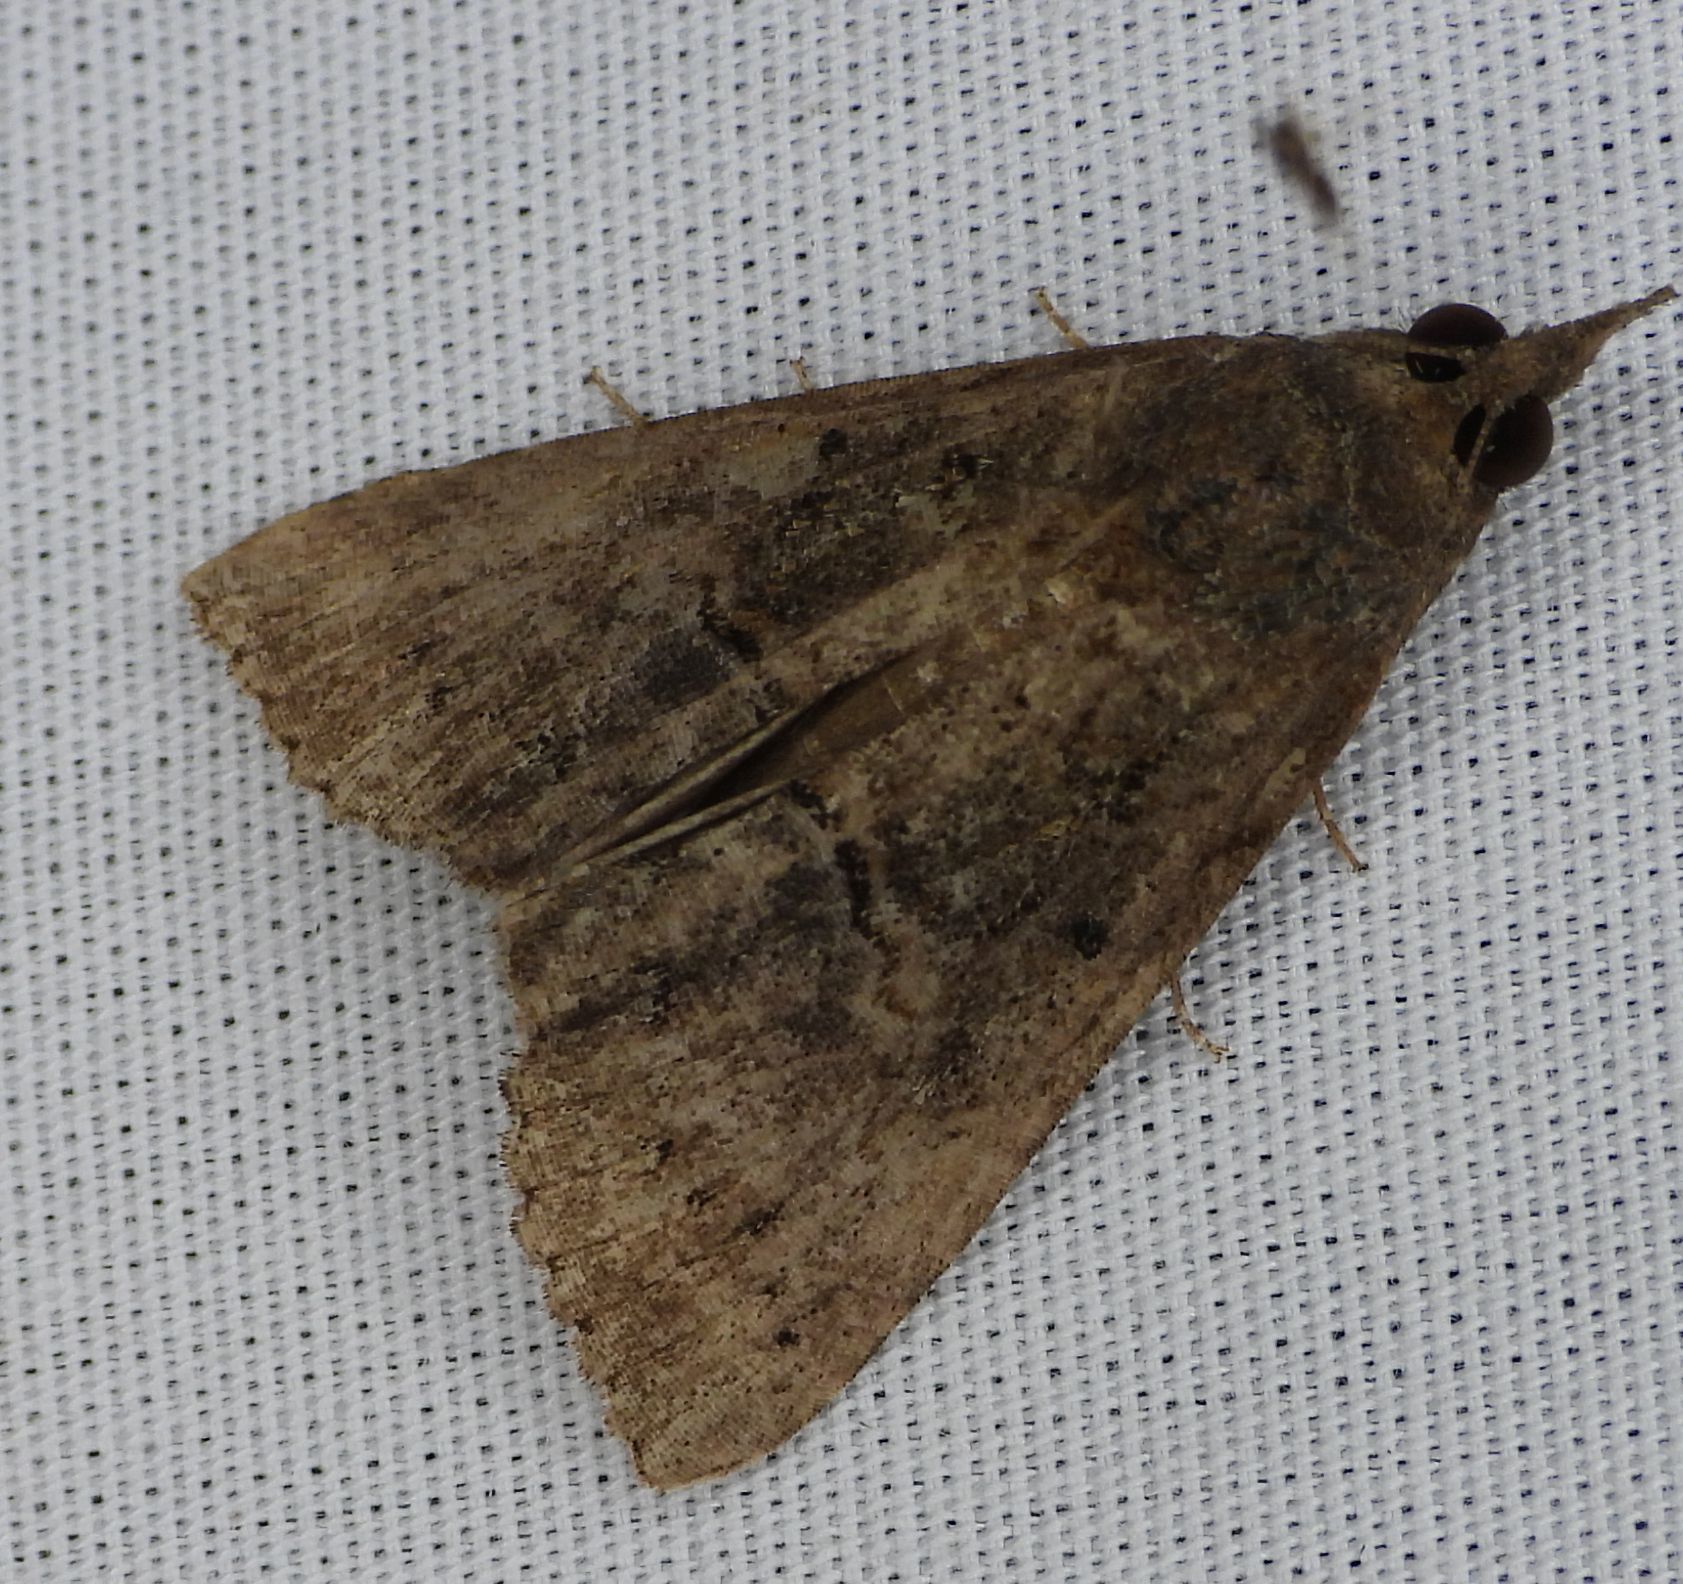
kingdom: Animalia
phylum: Arthropoda
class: Insecta
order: Lepidoptera
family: Erebidae
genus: Hypena
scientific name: Hypena scabra
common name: Green cloverworm
